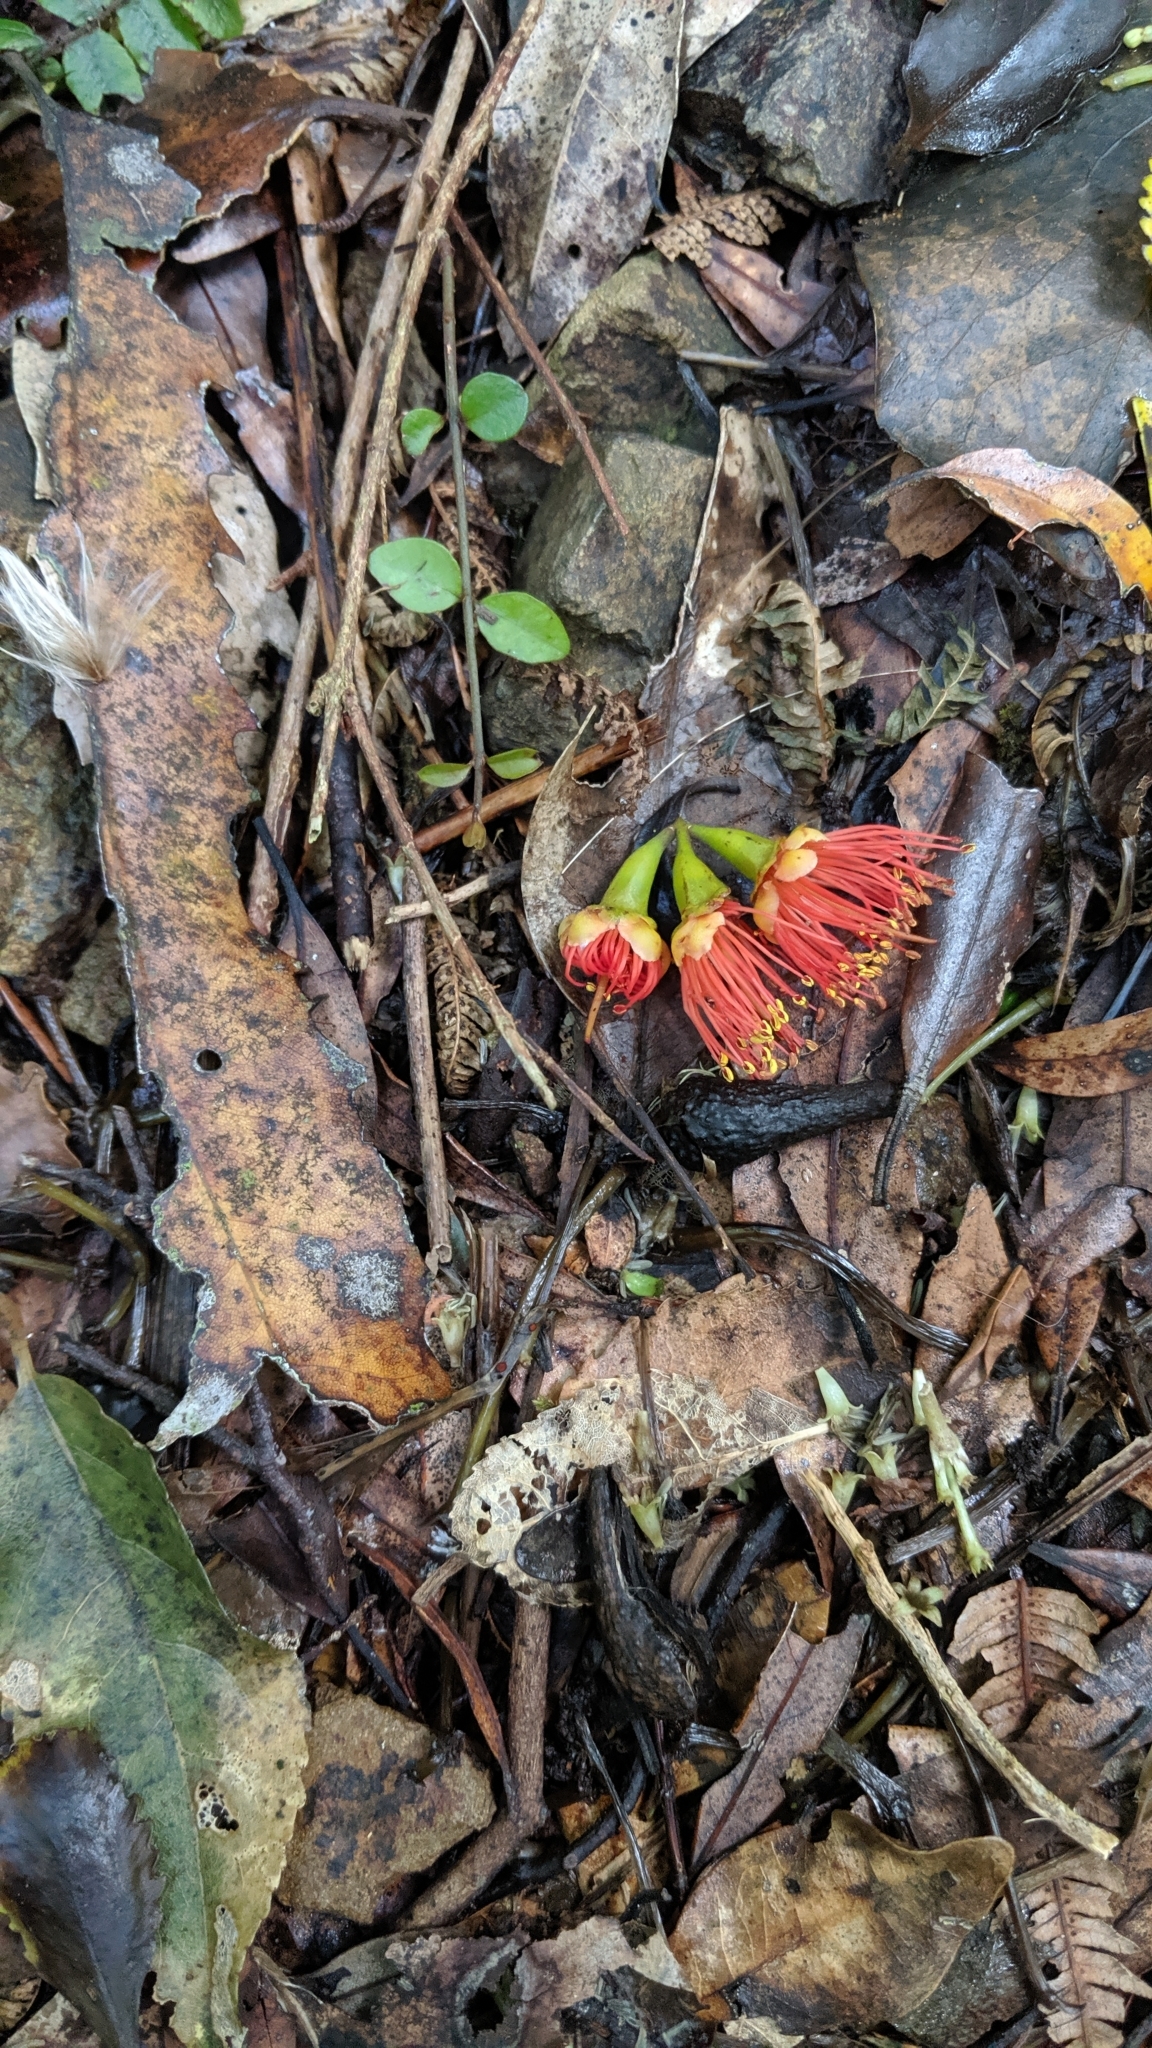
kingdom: Plantae
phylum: Tracheophyta
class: Magnoliopsida
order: Myrtales
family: Myrtaceae
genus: Metrosideros
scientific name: Metrosideros fulgens
